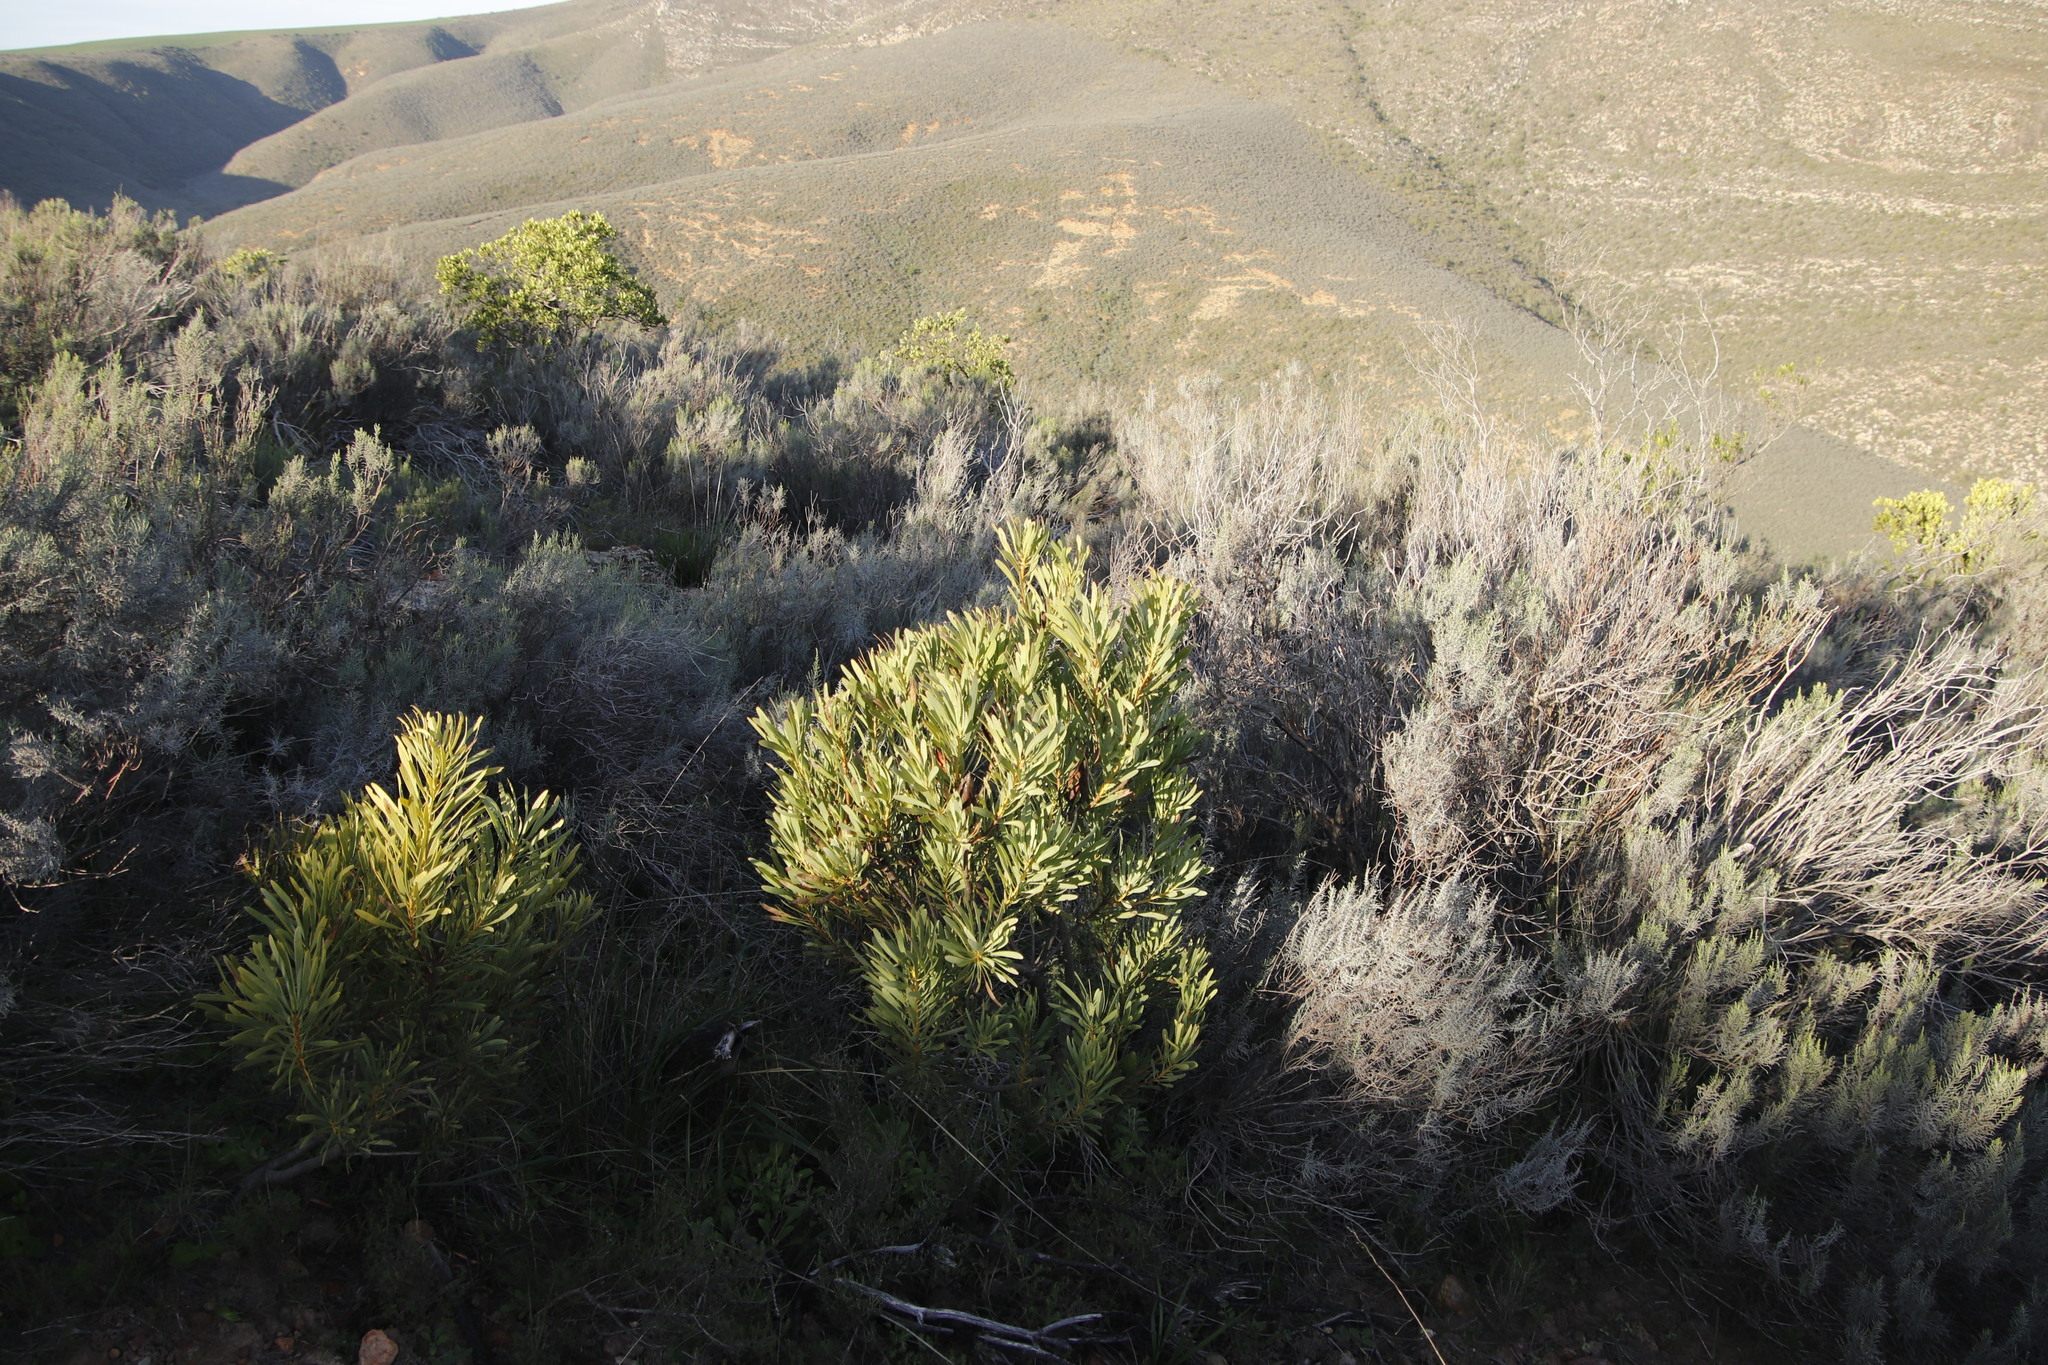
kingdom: Plantae
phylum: Tracheophyta
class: Magnoliopsida
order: Proteales
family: Proteaceae
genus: Protea
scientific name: Protea repens
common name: Sugarbush
